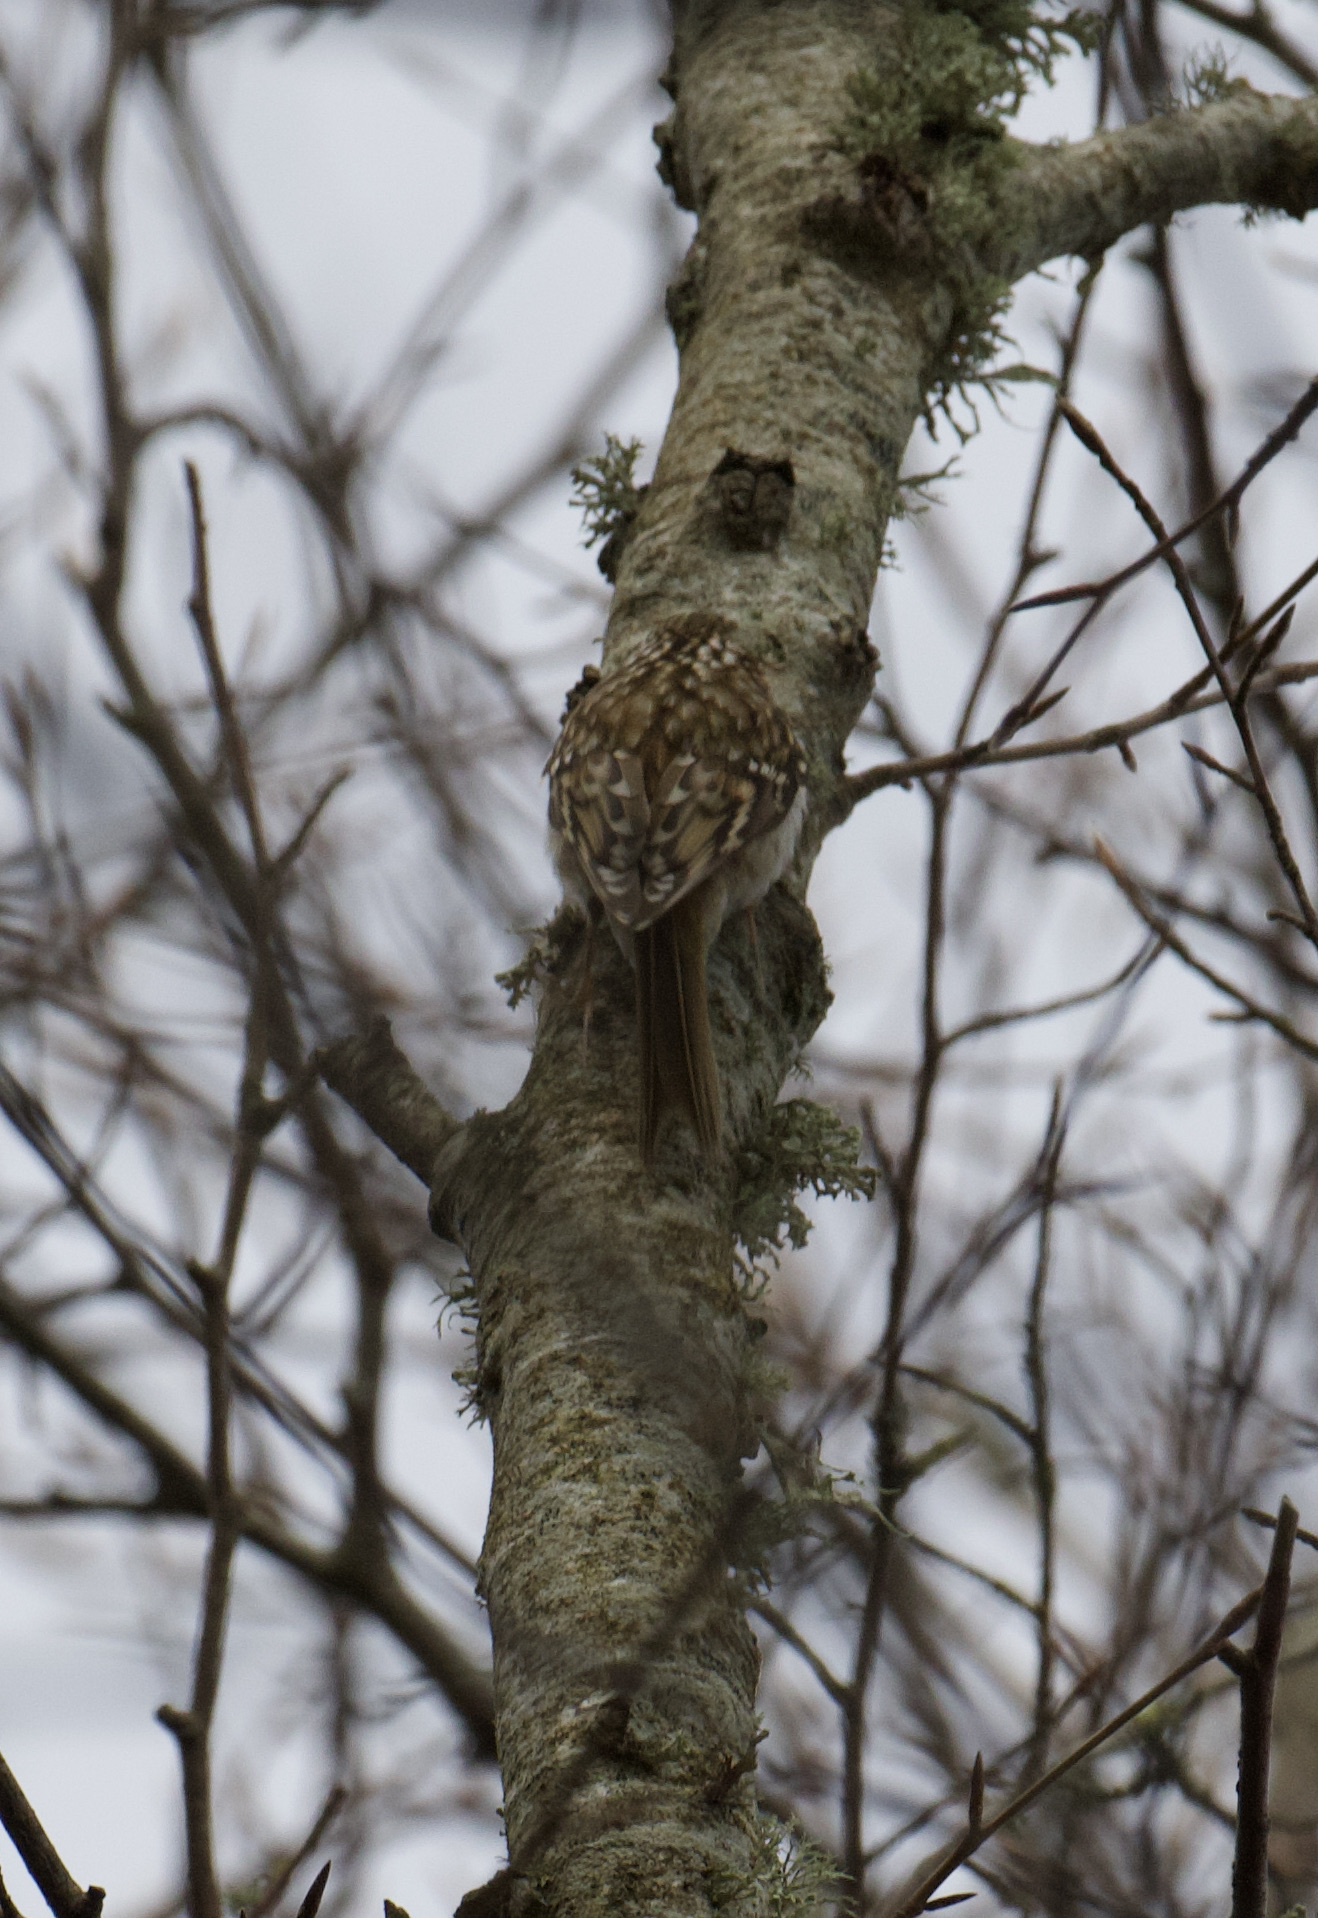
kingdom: Animalia
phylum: Chordata
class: Aves
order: Passeriformes
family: Certhiidae
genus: Certhia
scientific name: Certhia familiaris
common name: Eurasian treecreeper
